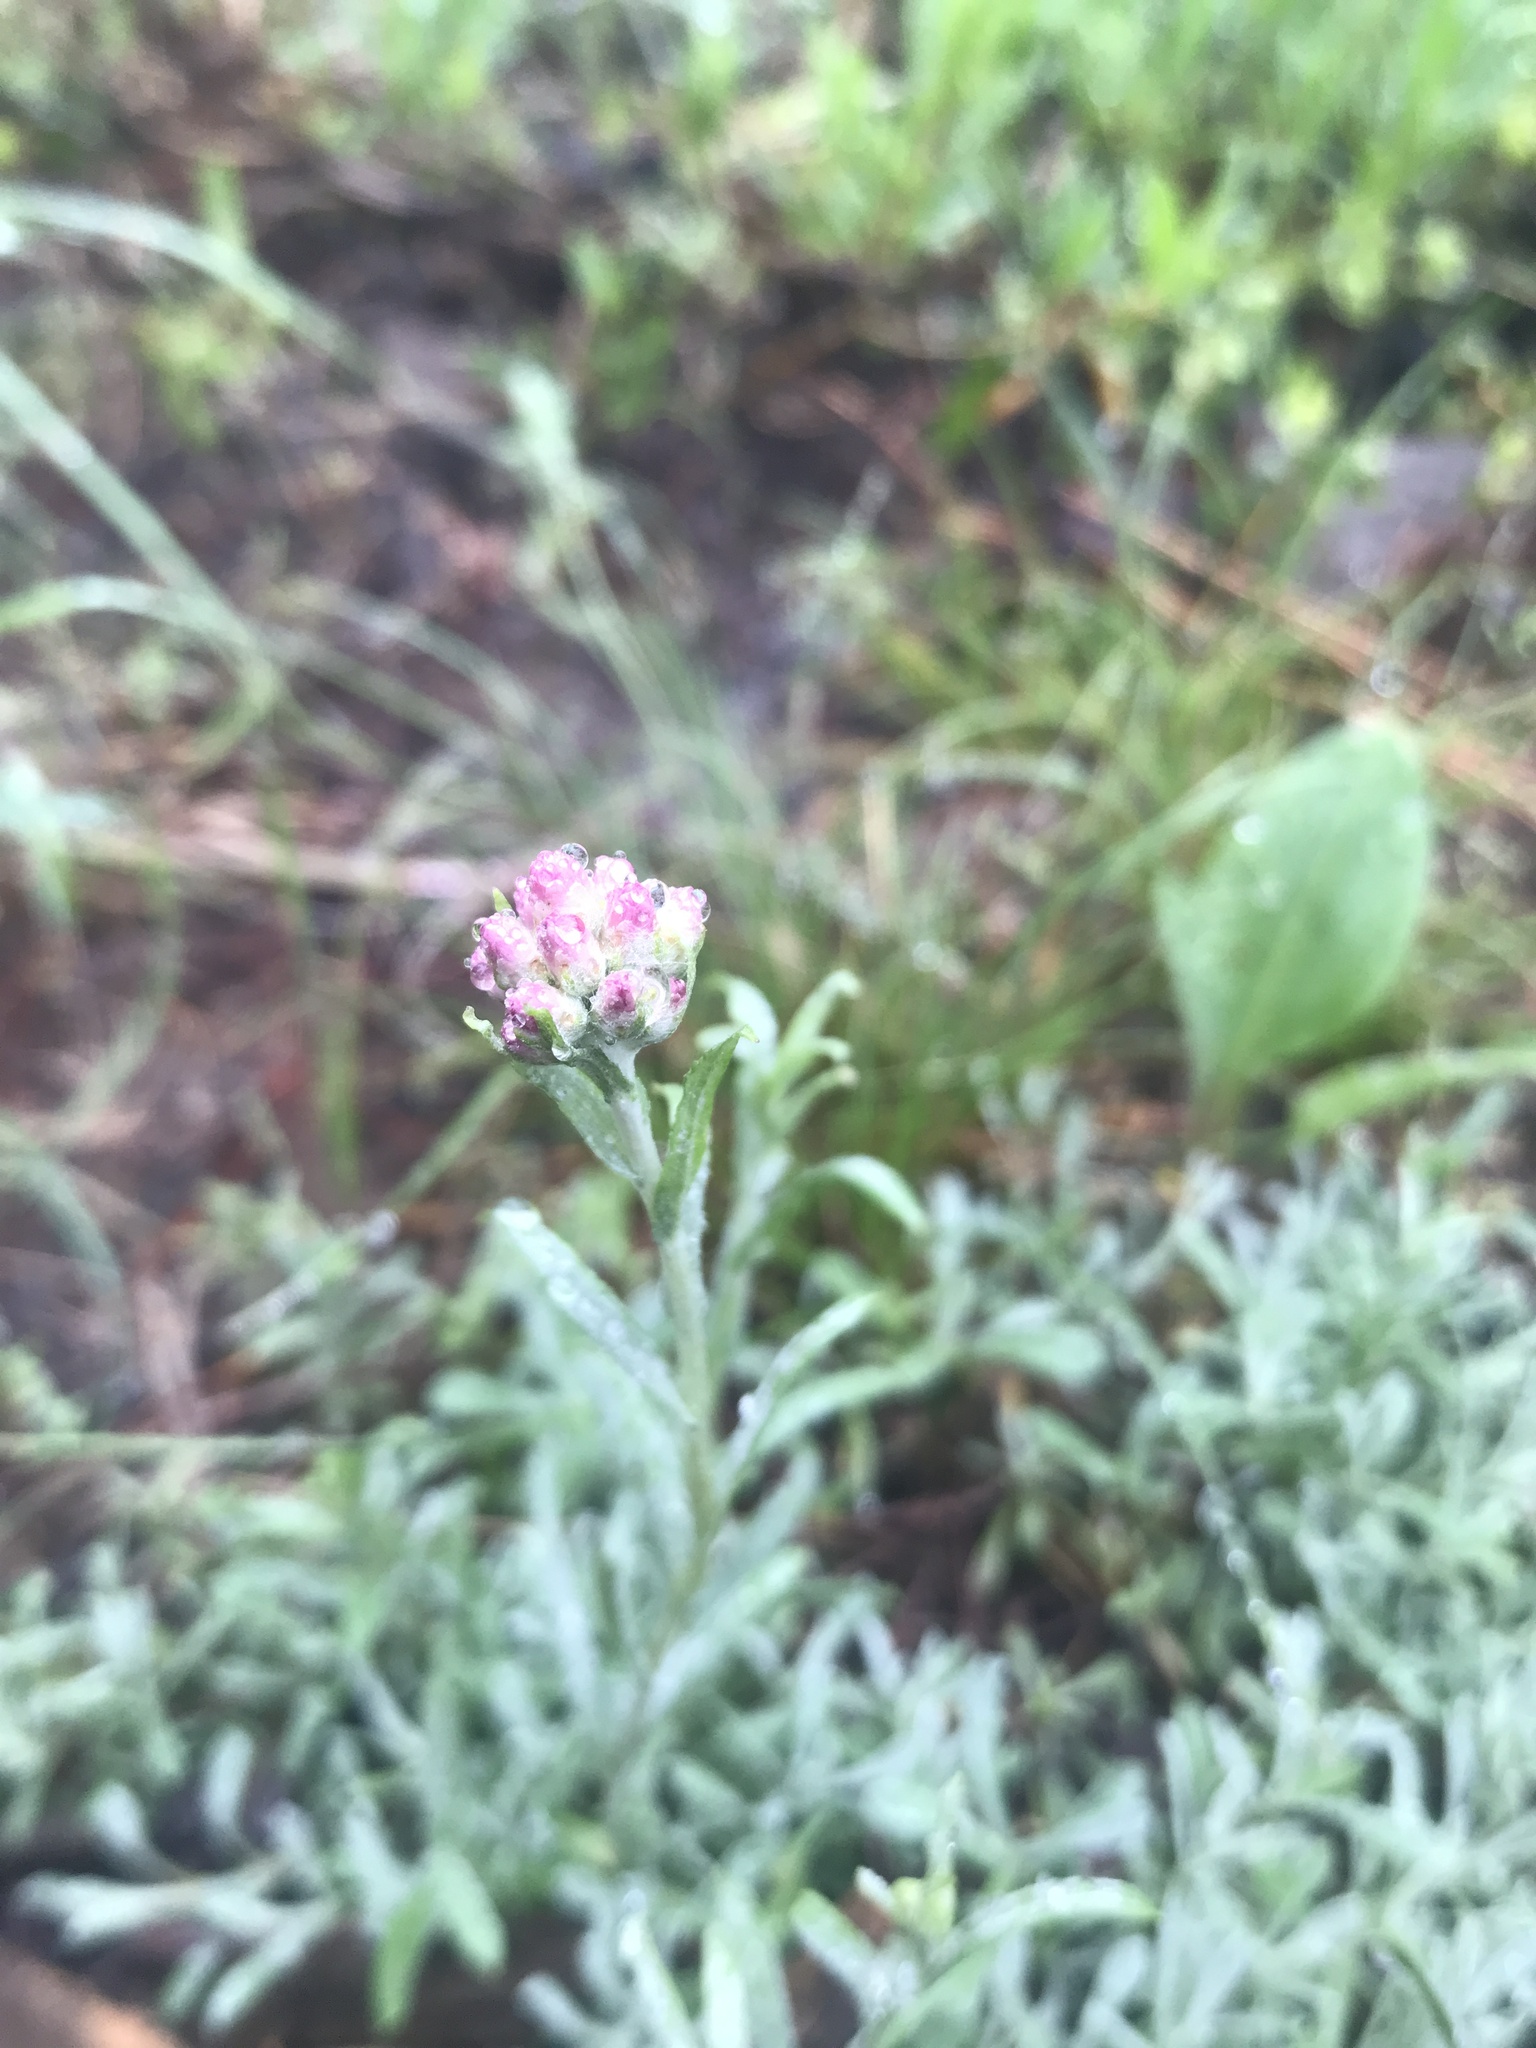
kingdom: Plantae
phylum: Tracheophyta
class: Magnoliopsida
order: Asterales
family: Asteraceae
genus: Antennaria
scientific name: Antennaria rosea
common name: Rosy pussytoes
